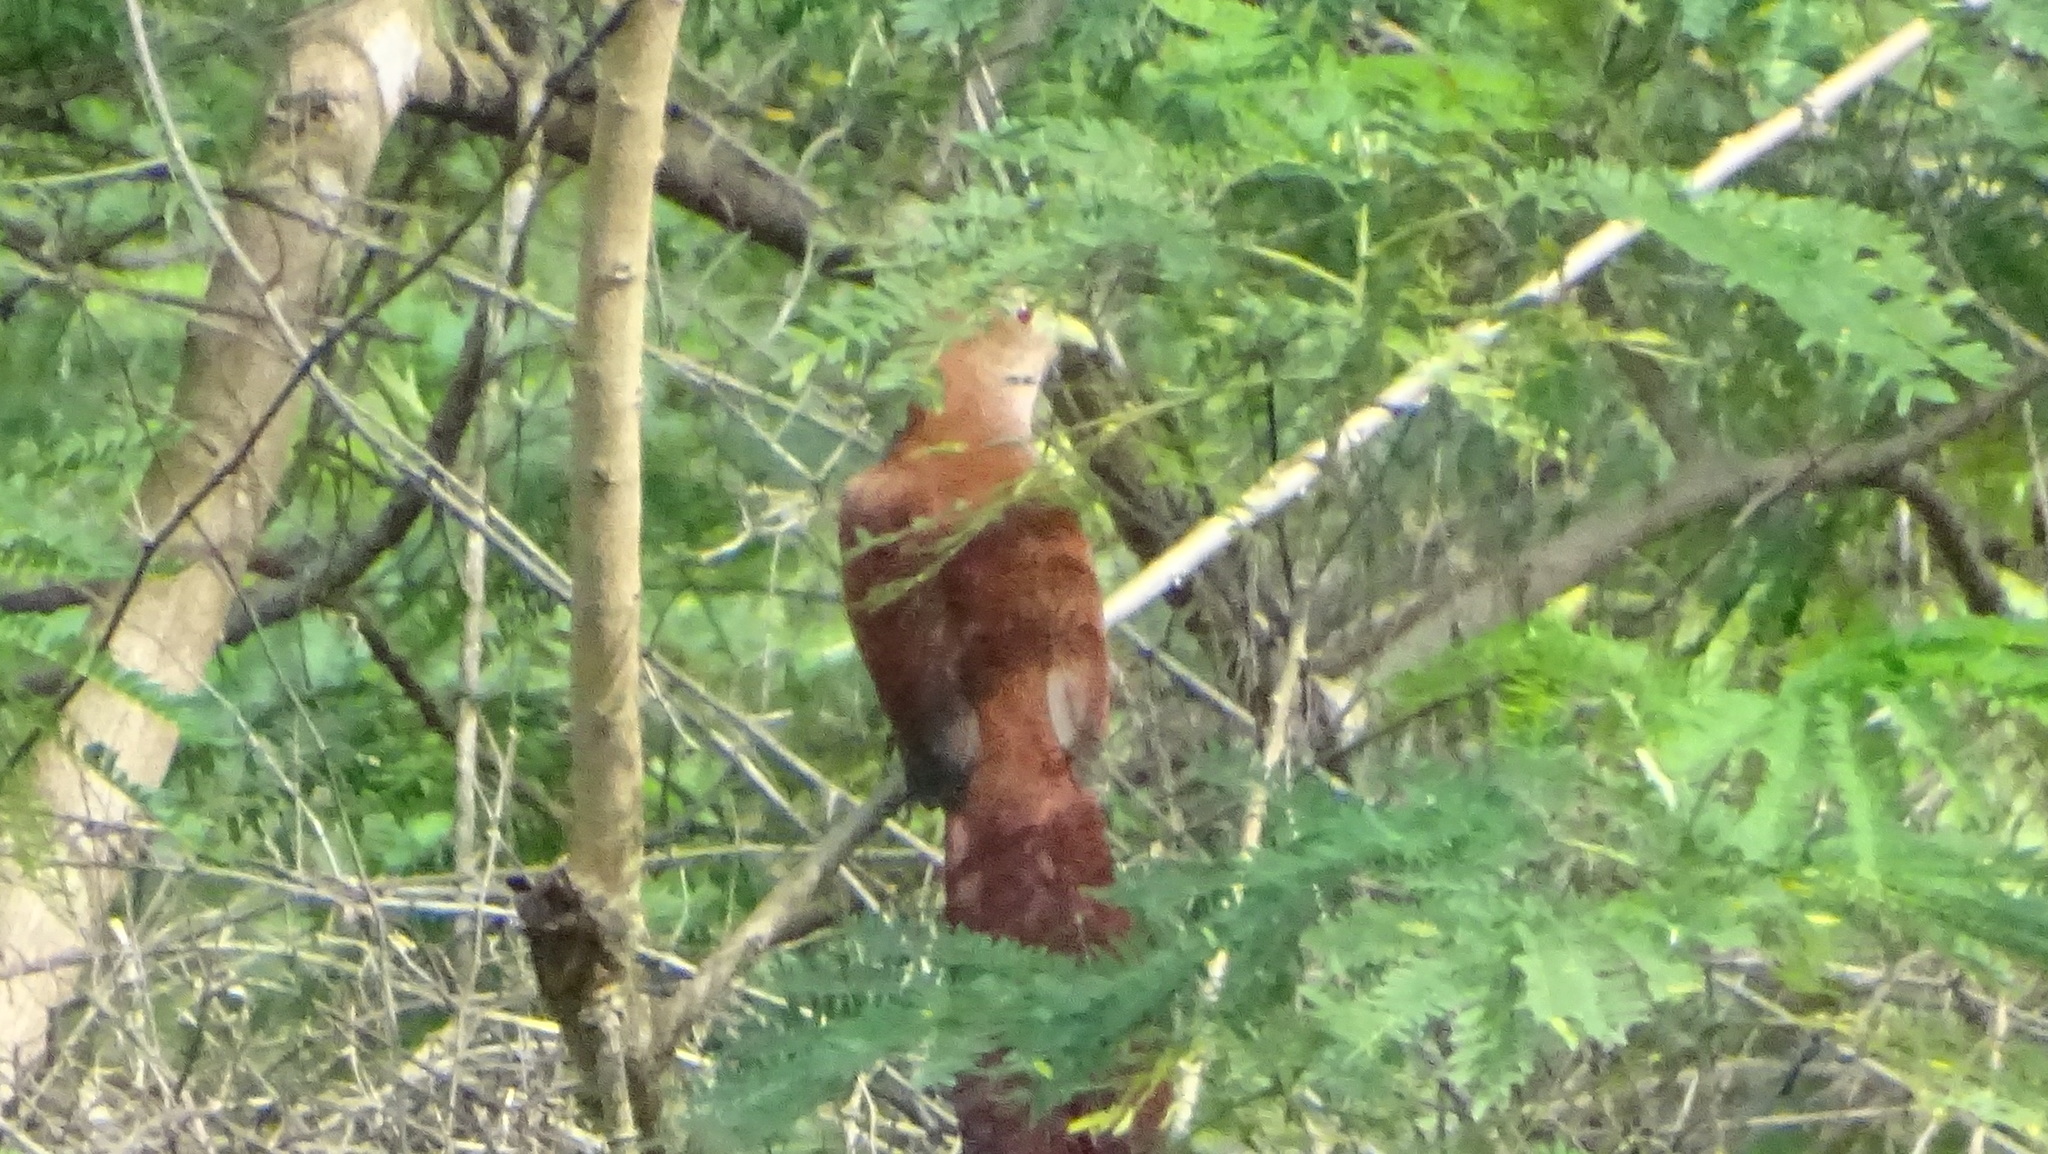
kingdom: Animalia
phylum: Chordata
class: Aves
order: Cuculiformes
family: Cuculidae
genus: Piaya
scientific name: Piaya cayana
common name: Squirrel cuckoo
